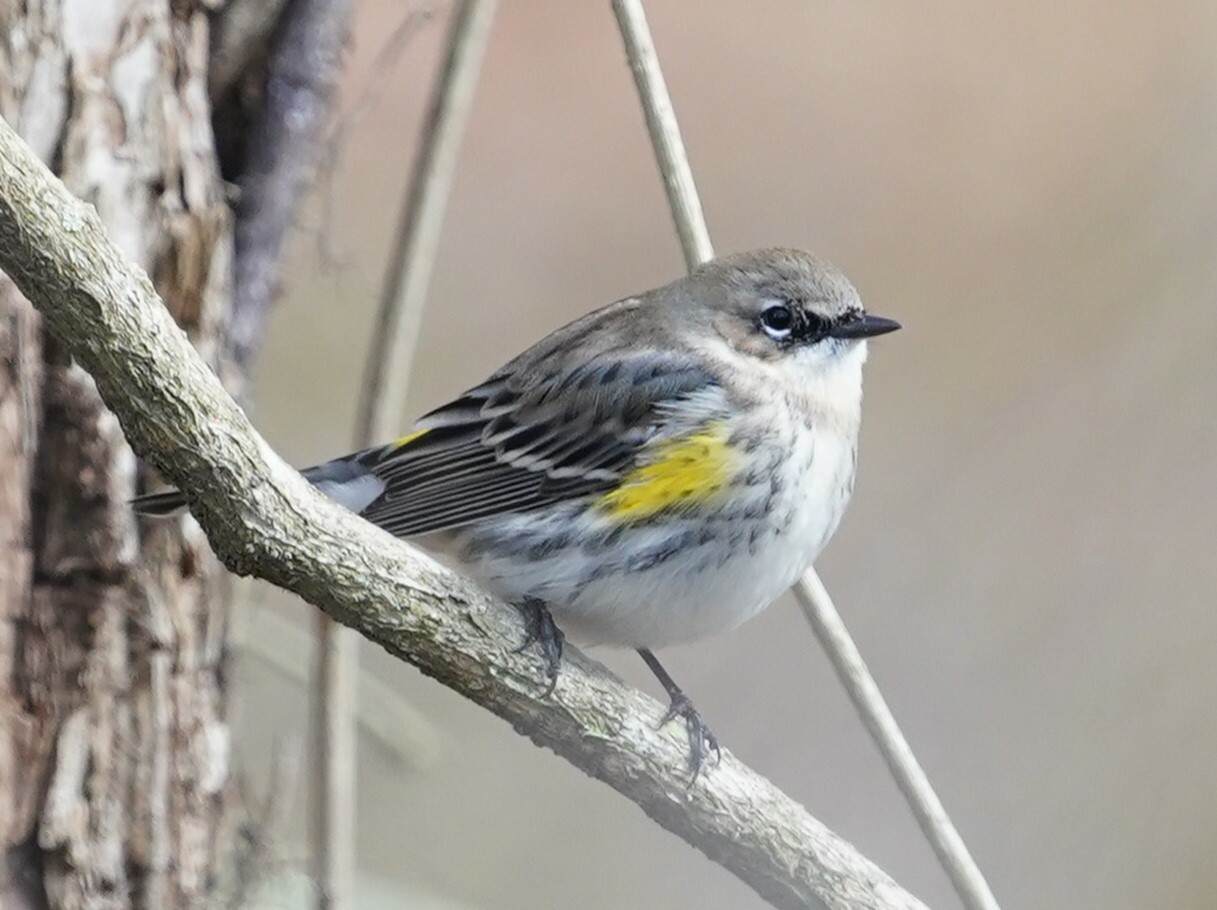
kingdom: Animalia
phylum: Chordata
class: Aves
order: Passeriformes
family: Parulidae
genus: Setophaga
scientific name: Setophaga coronata
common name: Myrtle warbler
